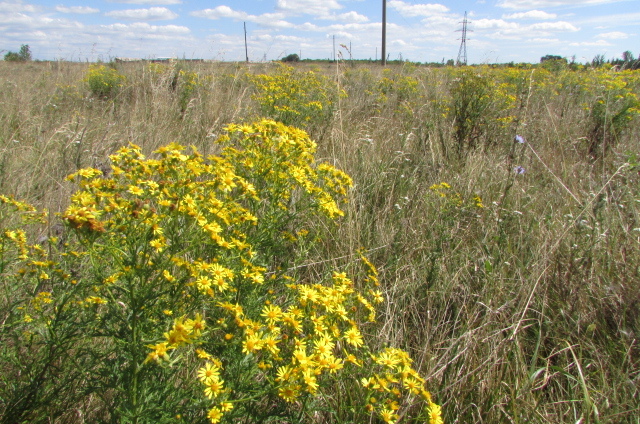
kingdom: Plantae
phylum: Tracheophyta
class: Magnoliopsida
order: Asterales
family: Asteraceae
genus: Jacobaea
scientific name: Jacobaea erucifolia
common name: Hoary ragwort
